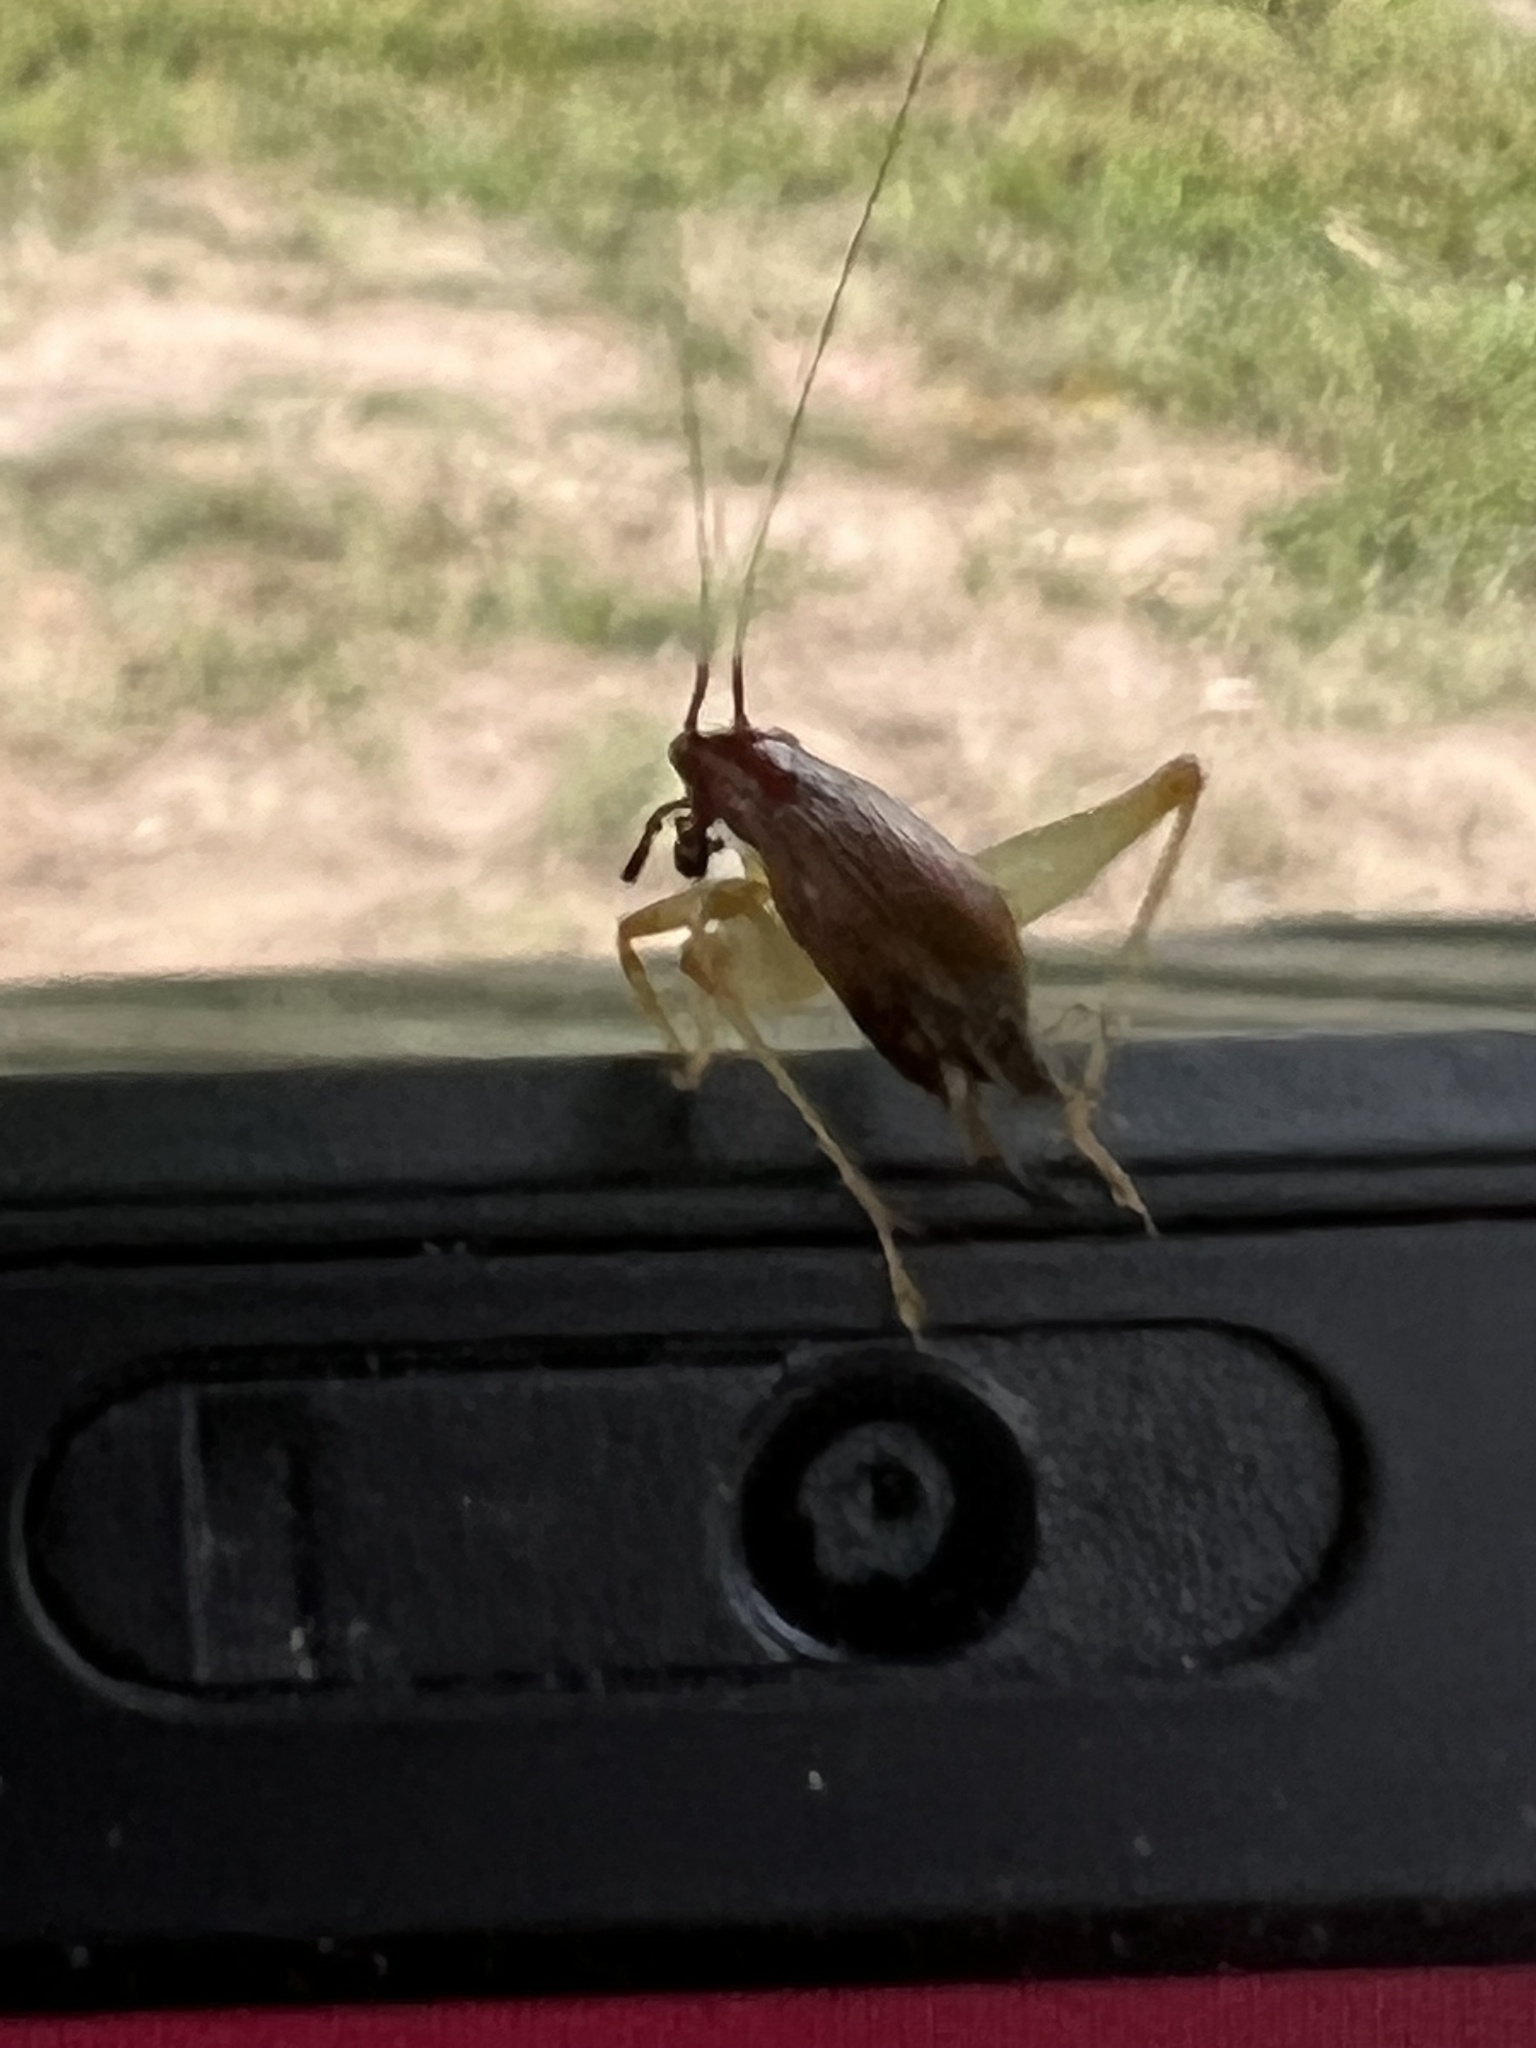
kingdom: Animalia
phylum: Arthropoda
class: Insecta
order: Orthoptera
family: Trigonidiidae
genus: Phyllopalpus
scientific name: Phyllopalpus pulchellus
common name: Handsome trig
